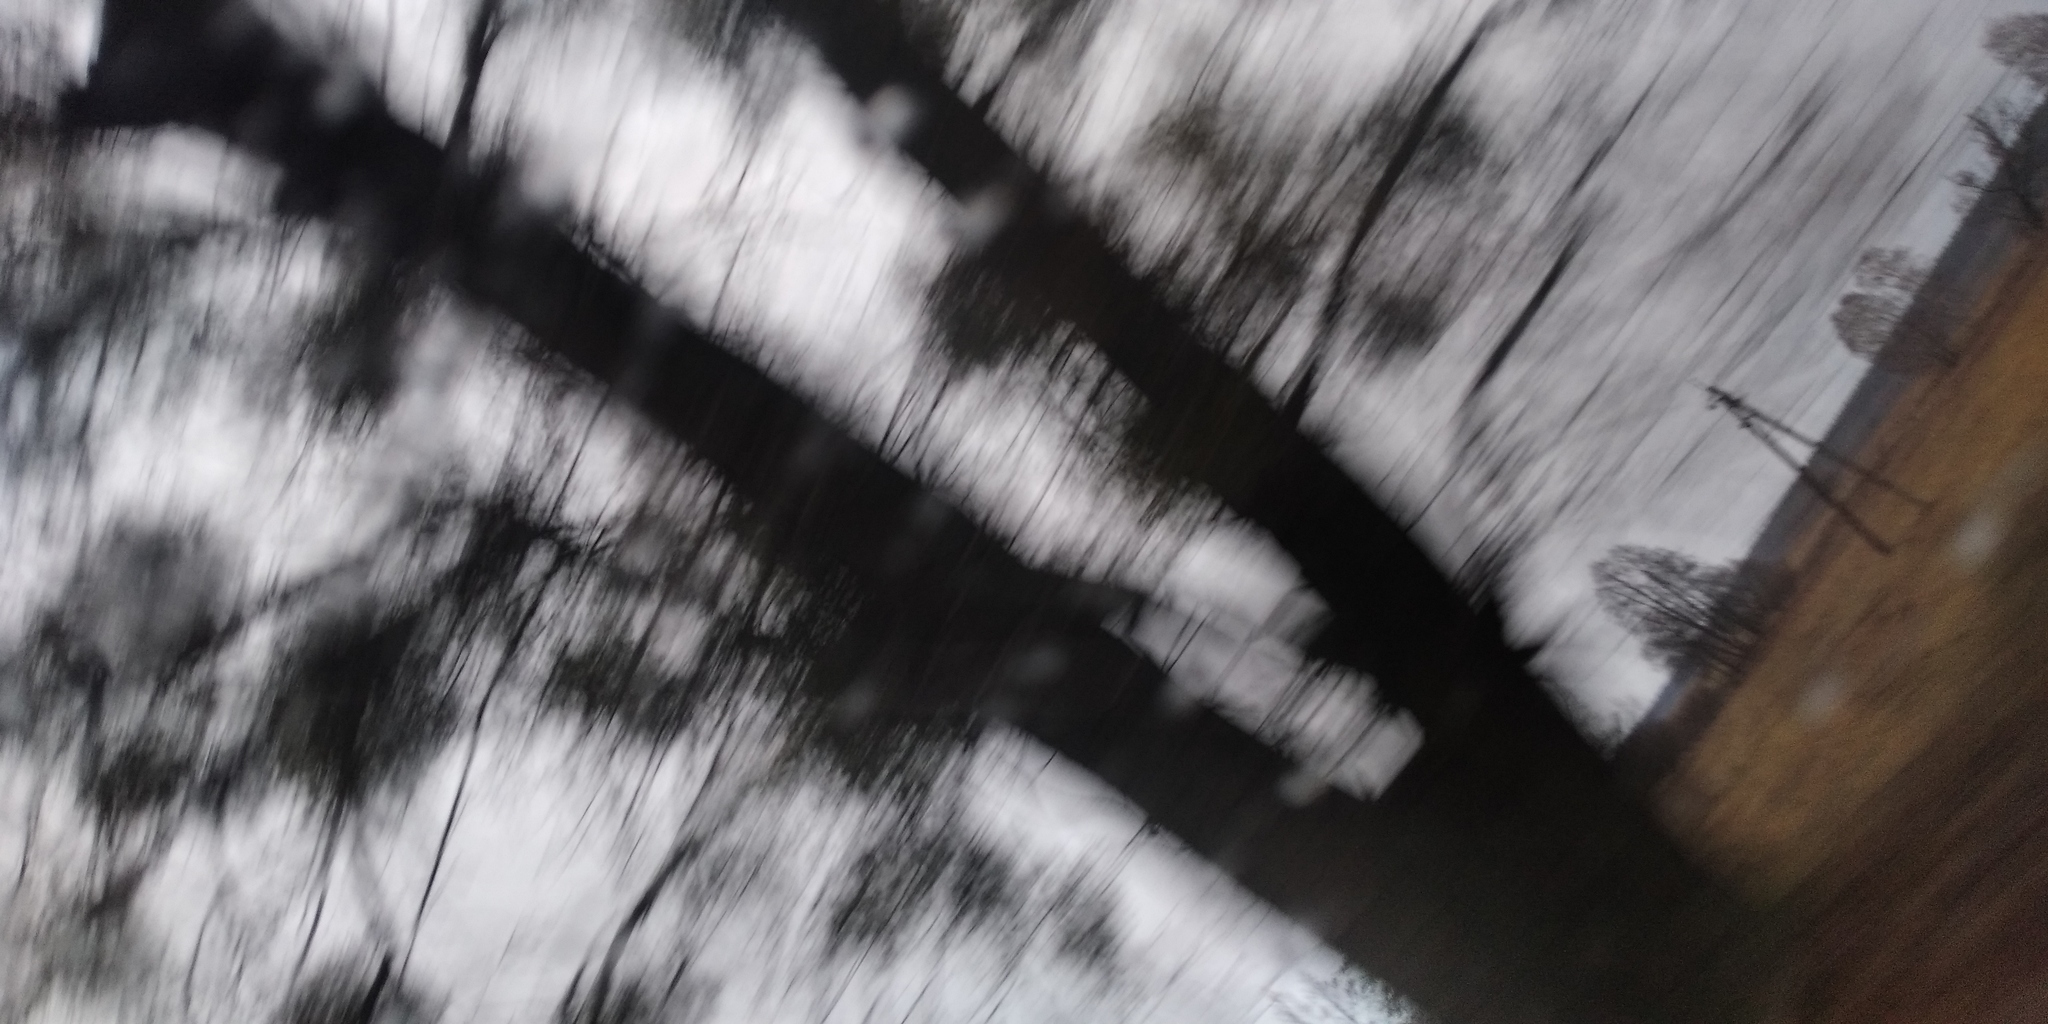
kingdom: Plantae
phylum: Tracheophyta
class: Magnoliopsida
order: Santalales
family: Viscaceae
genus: Viscum
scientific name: Viscum album
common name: Mistletoe
